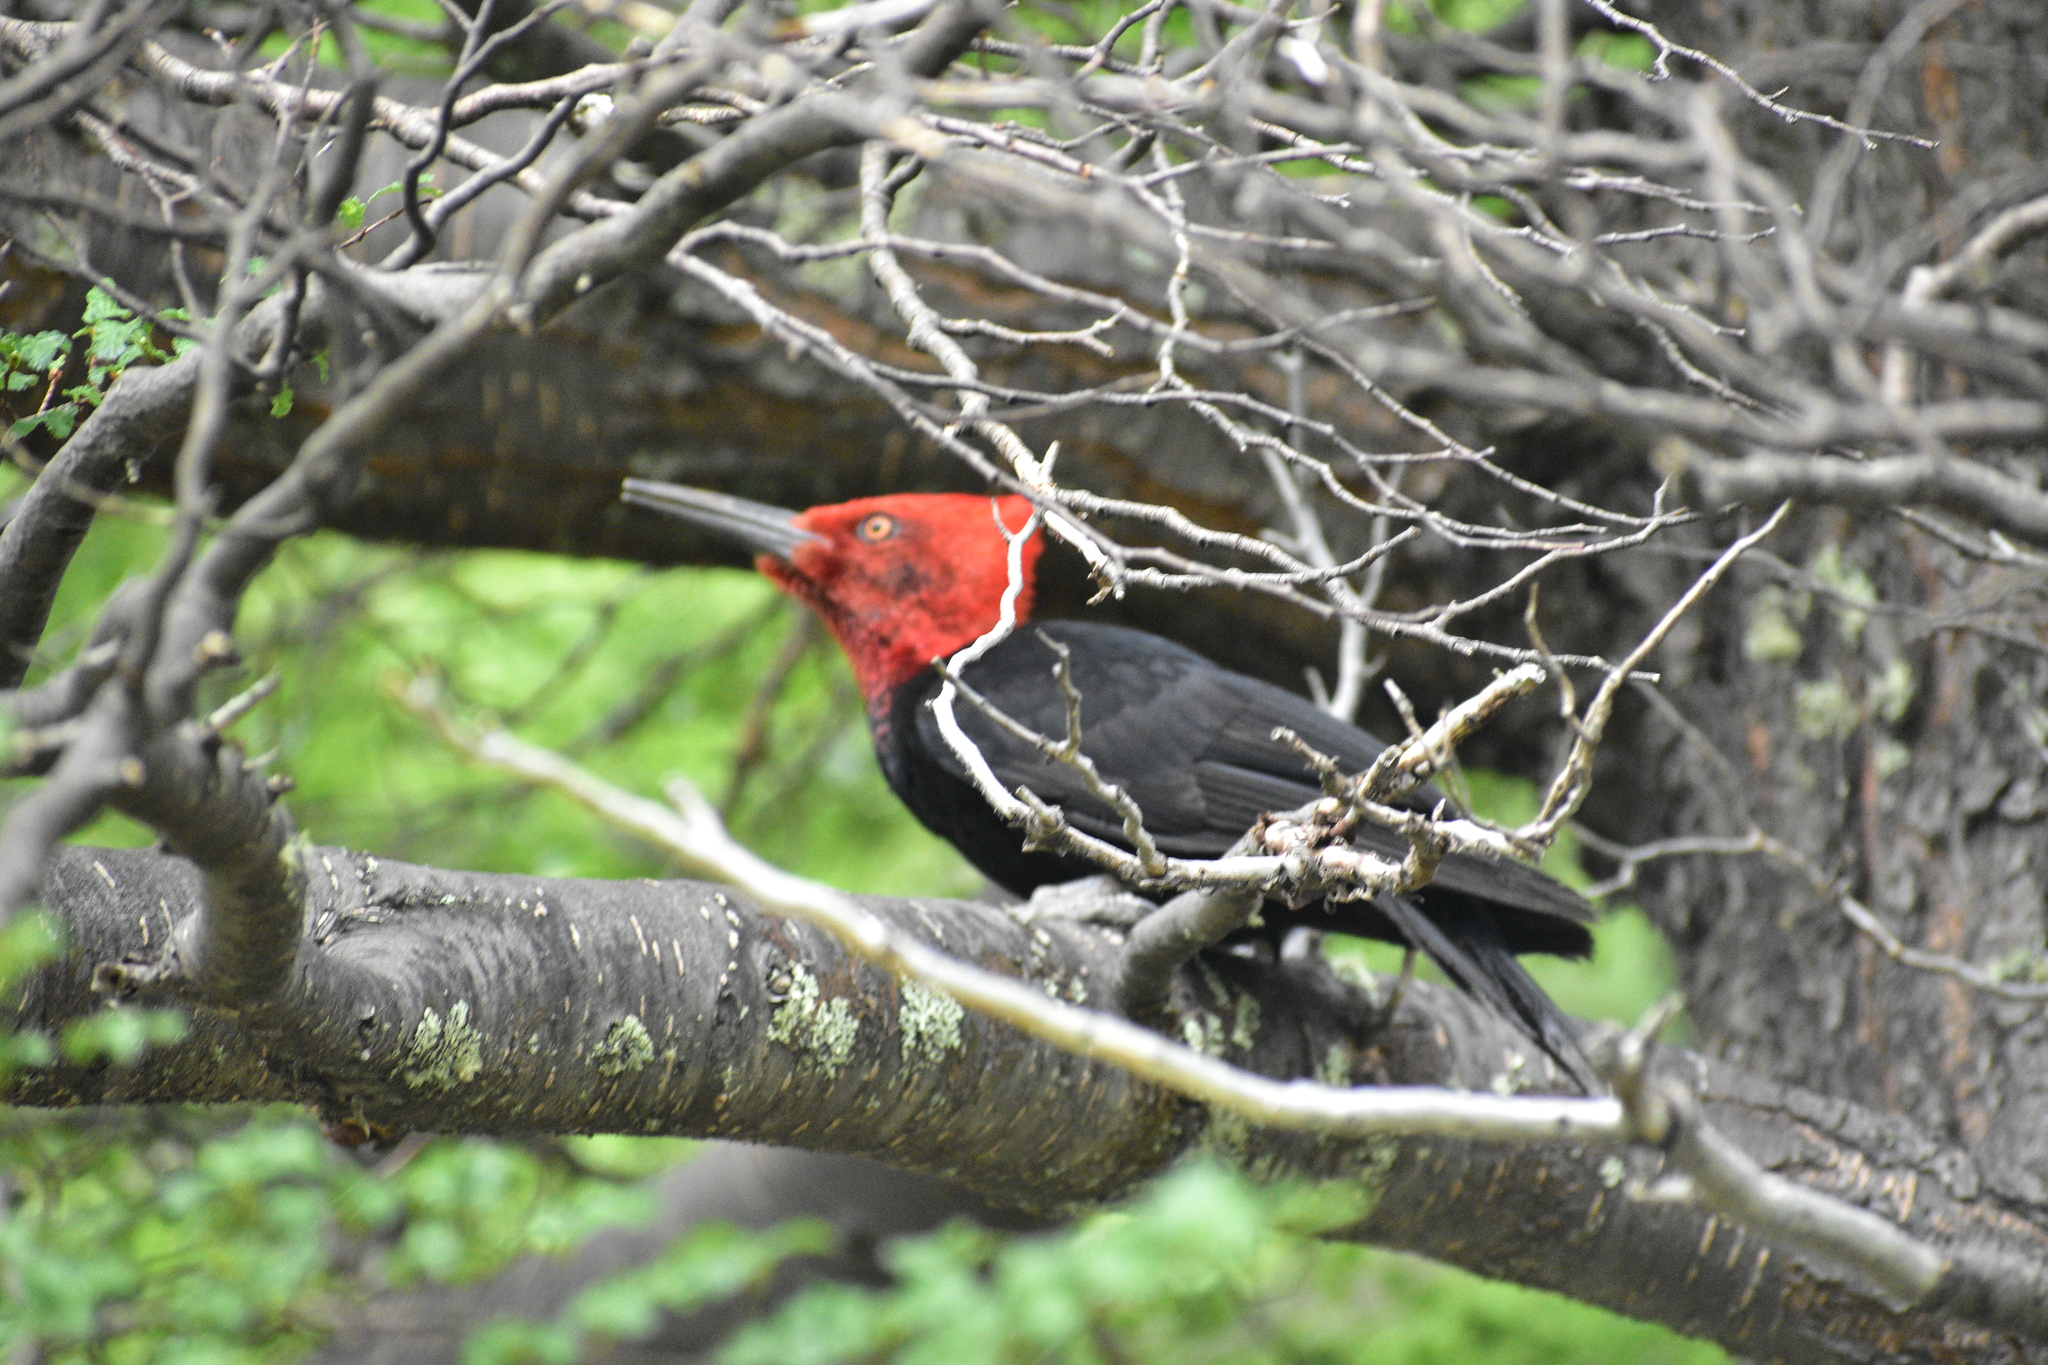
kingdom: Animalia
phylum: Chordata
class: Aves
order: Piciformes
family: Picidae
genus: Campephilus
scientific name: Campephilus magellanicus
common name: Magellanic woodpecker
